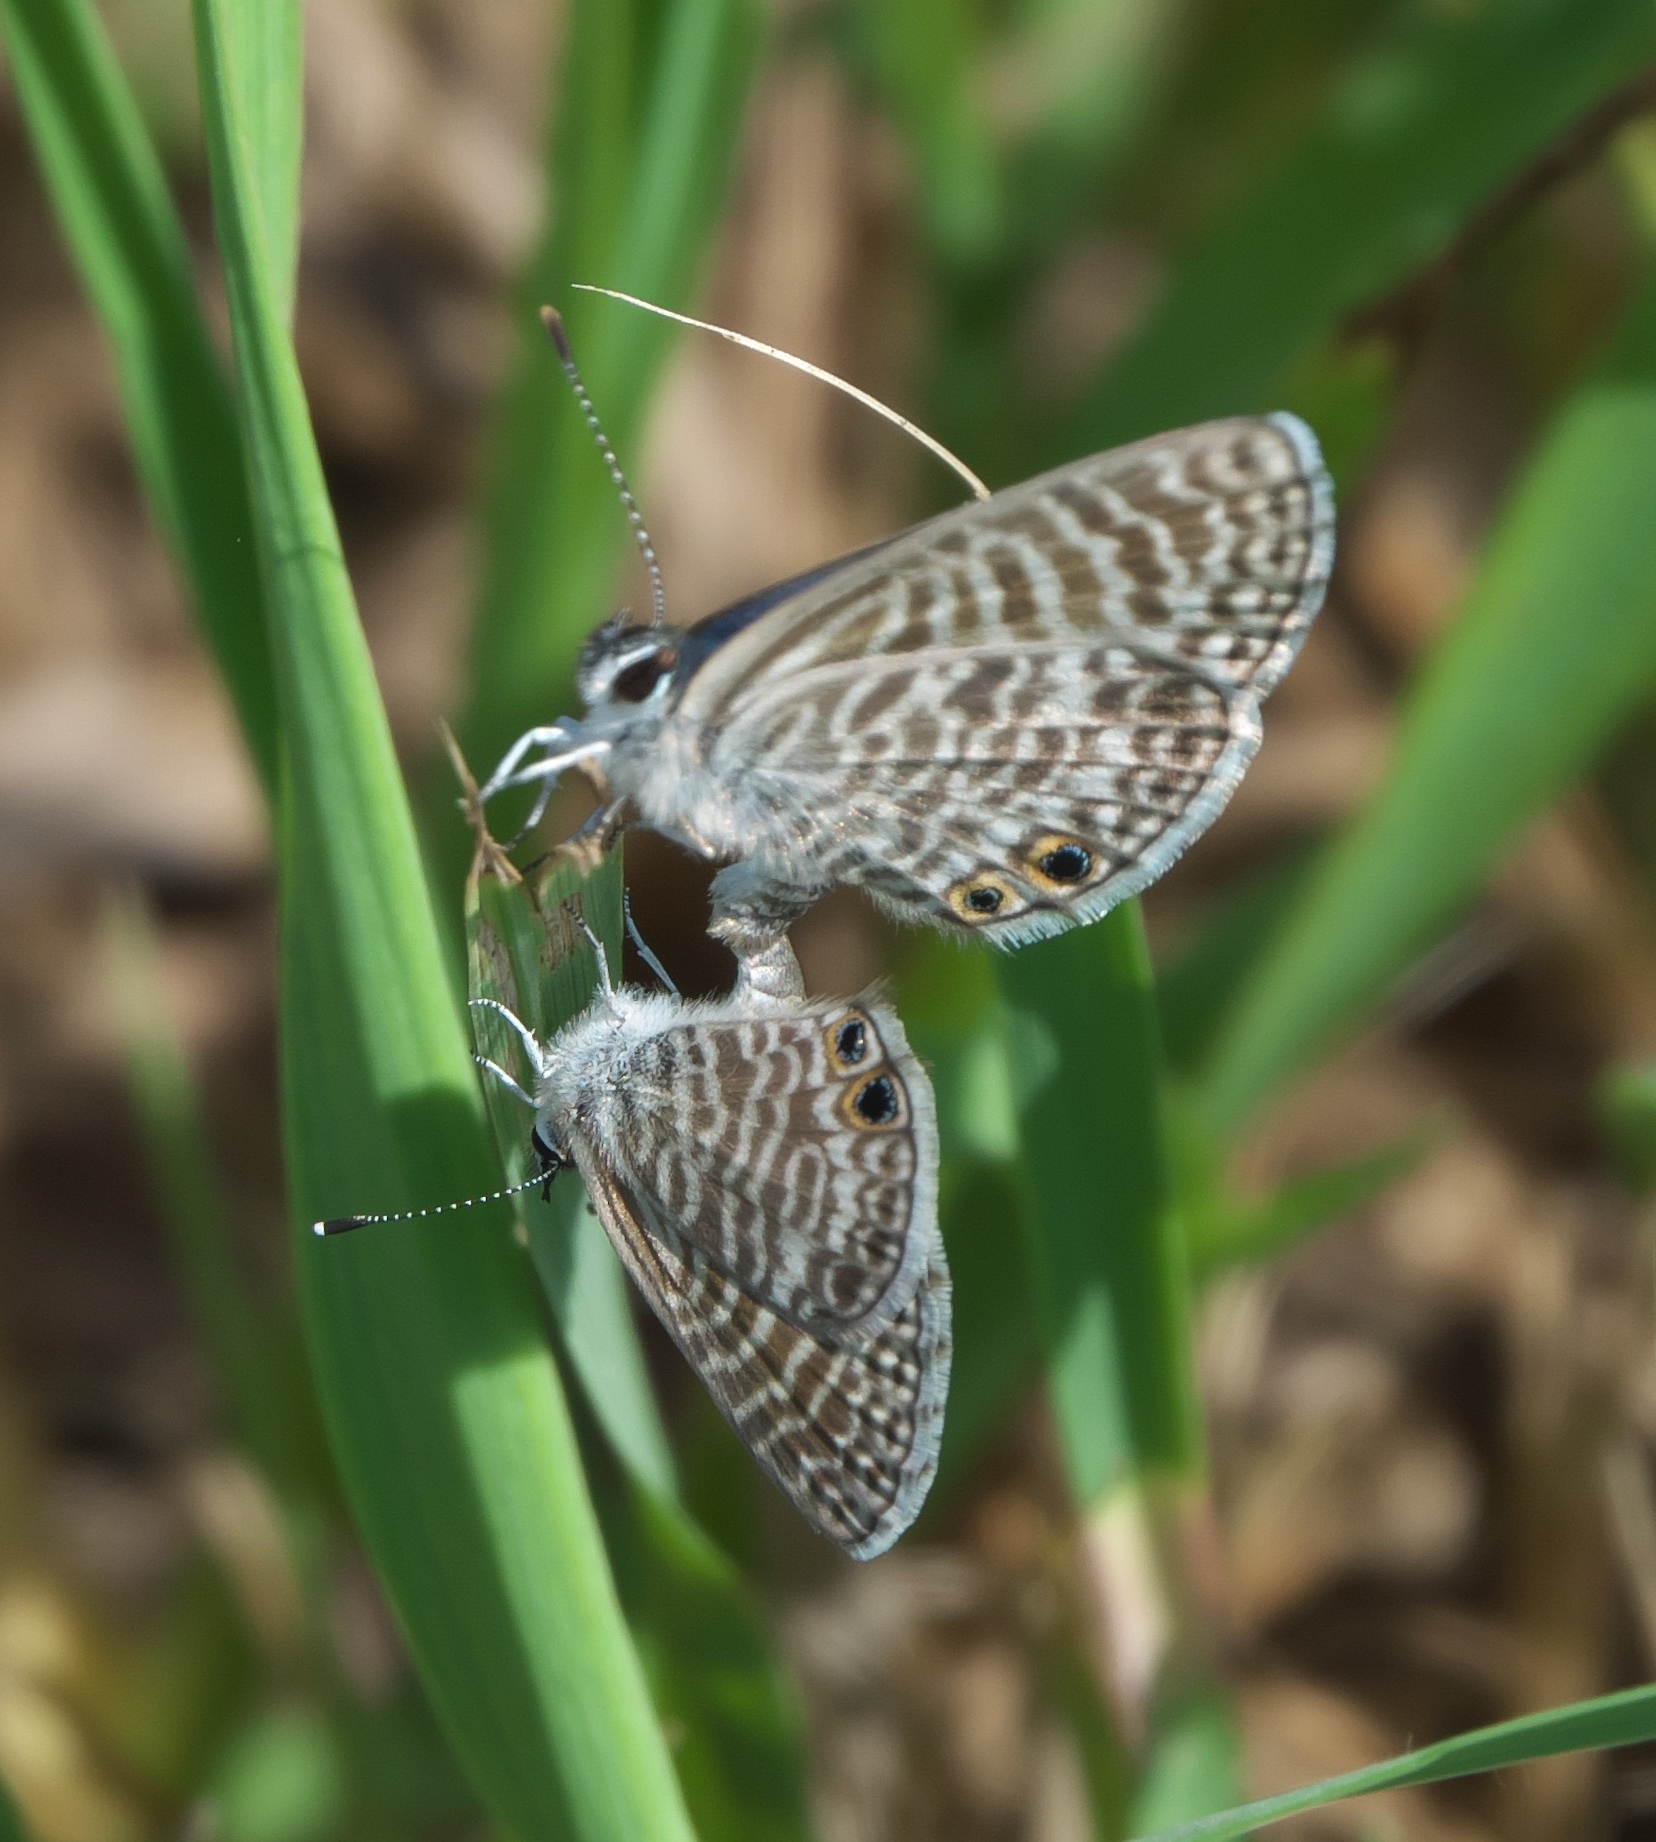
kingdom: Animalia
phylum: Arthropoda
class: Insecta
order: Lepidoptera
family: Lycaenidae
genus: Leptotes
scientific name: Leptotes marina
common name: Marine blue
